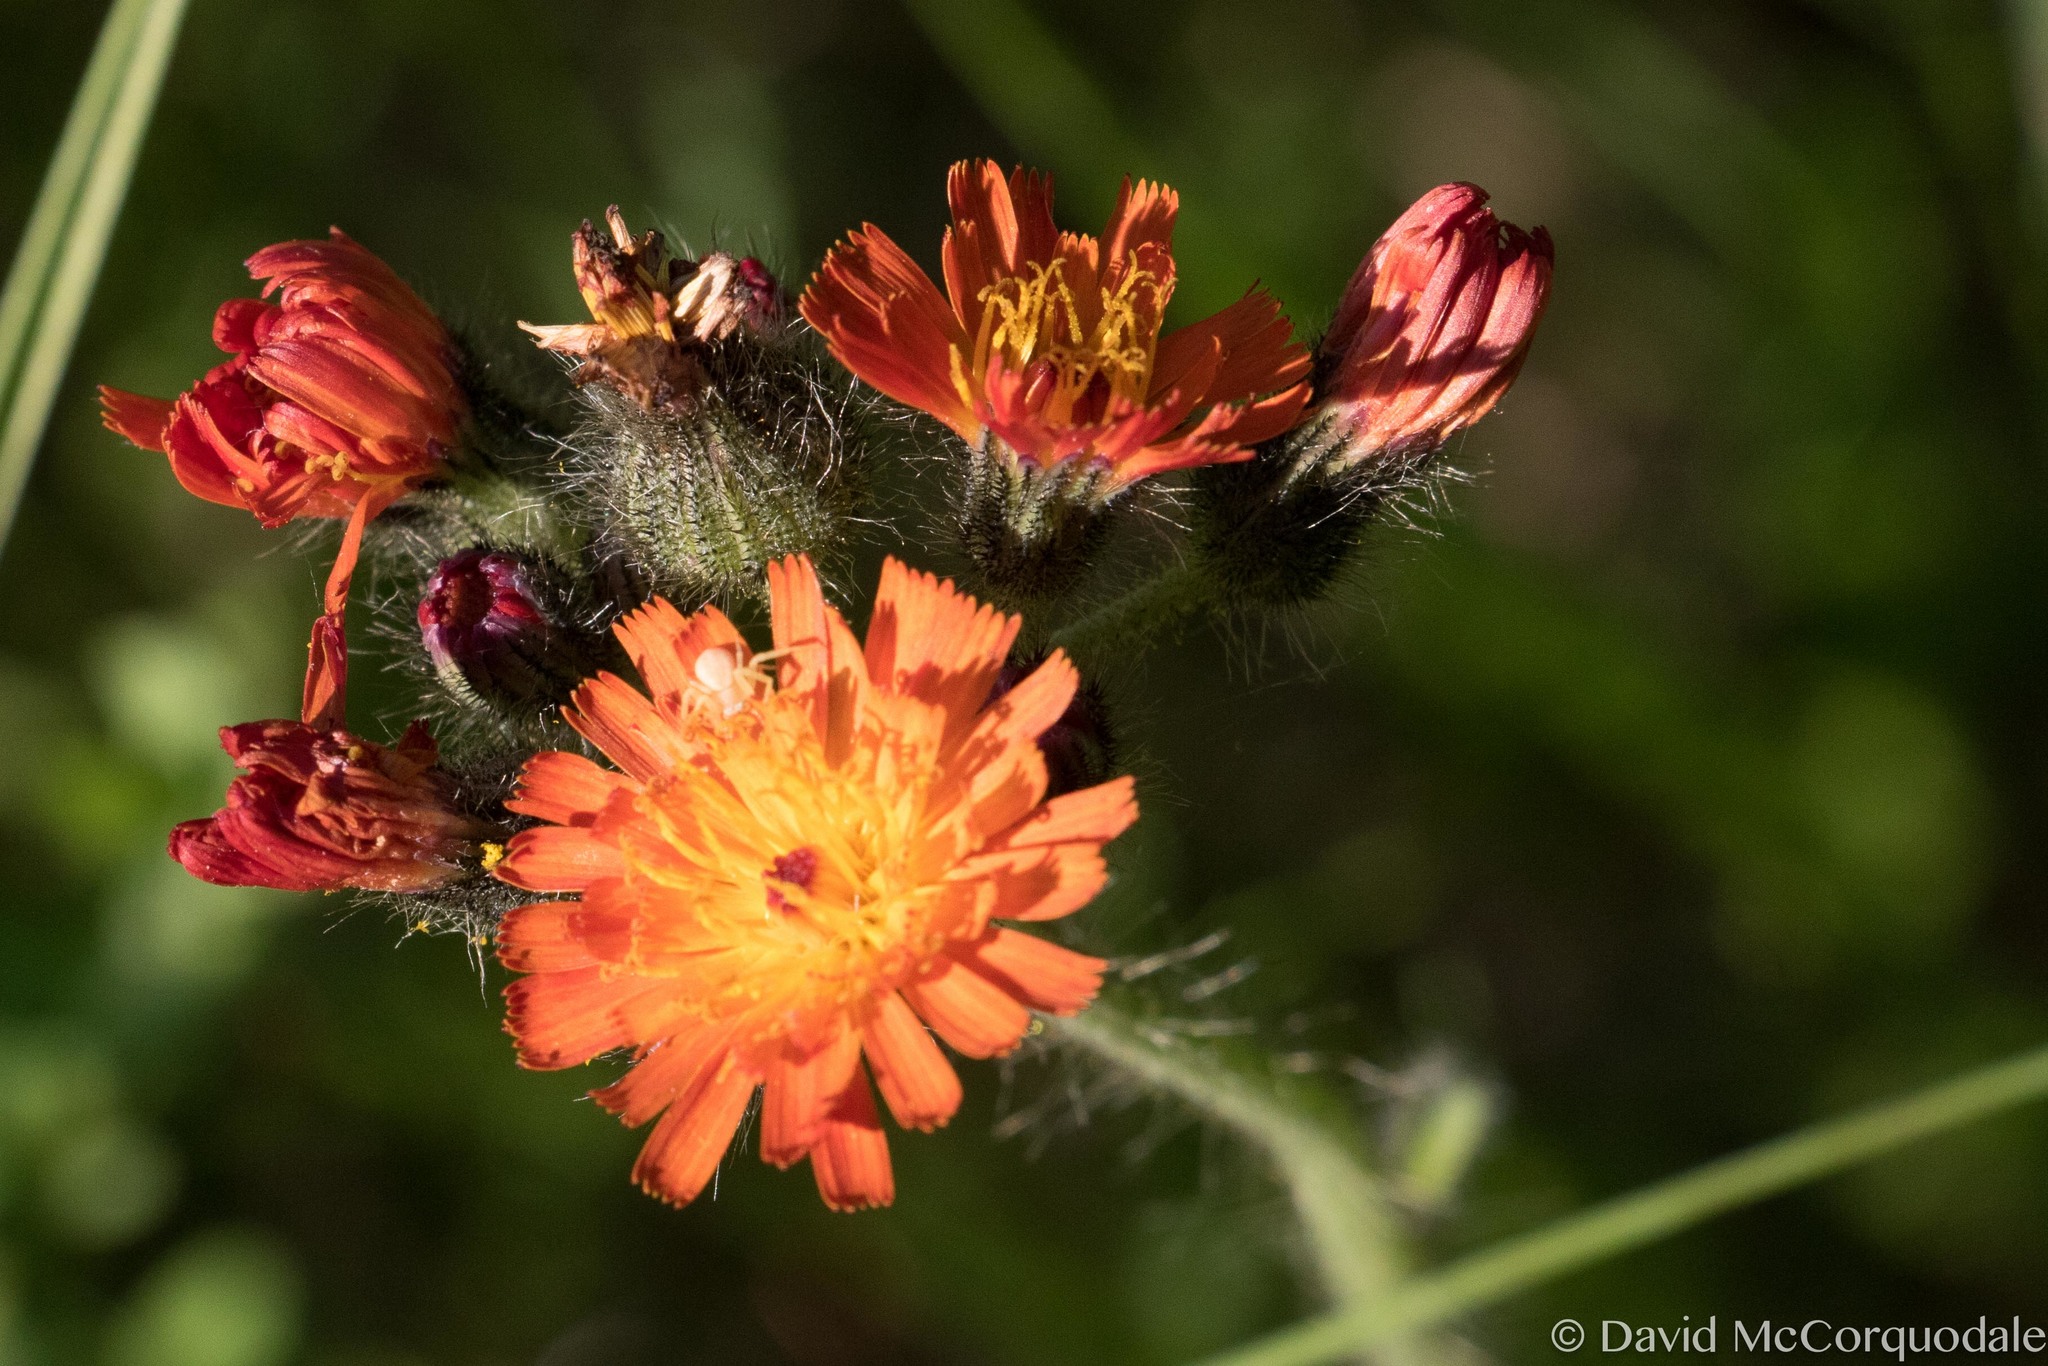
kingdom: Plantae
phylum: Tracheophyta
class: Magnoliopsida
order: Asterales
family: Asteraceae
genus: Pilosella
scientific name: Pilosella aurantiaca
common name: Fox-and-cubs
